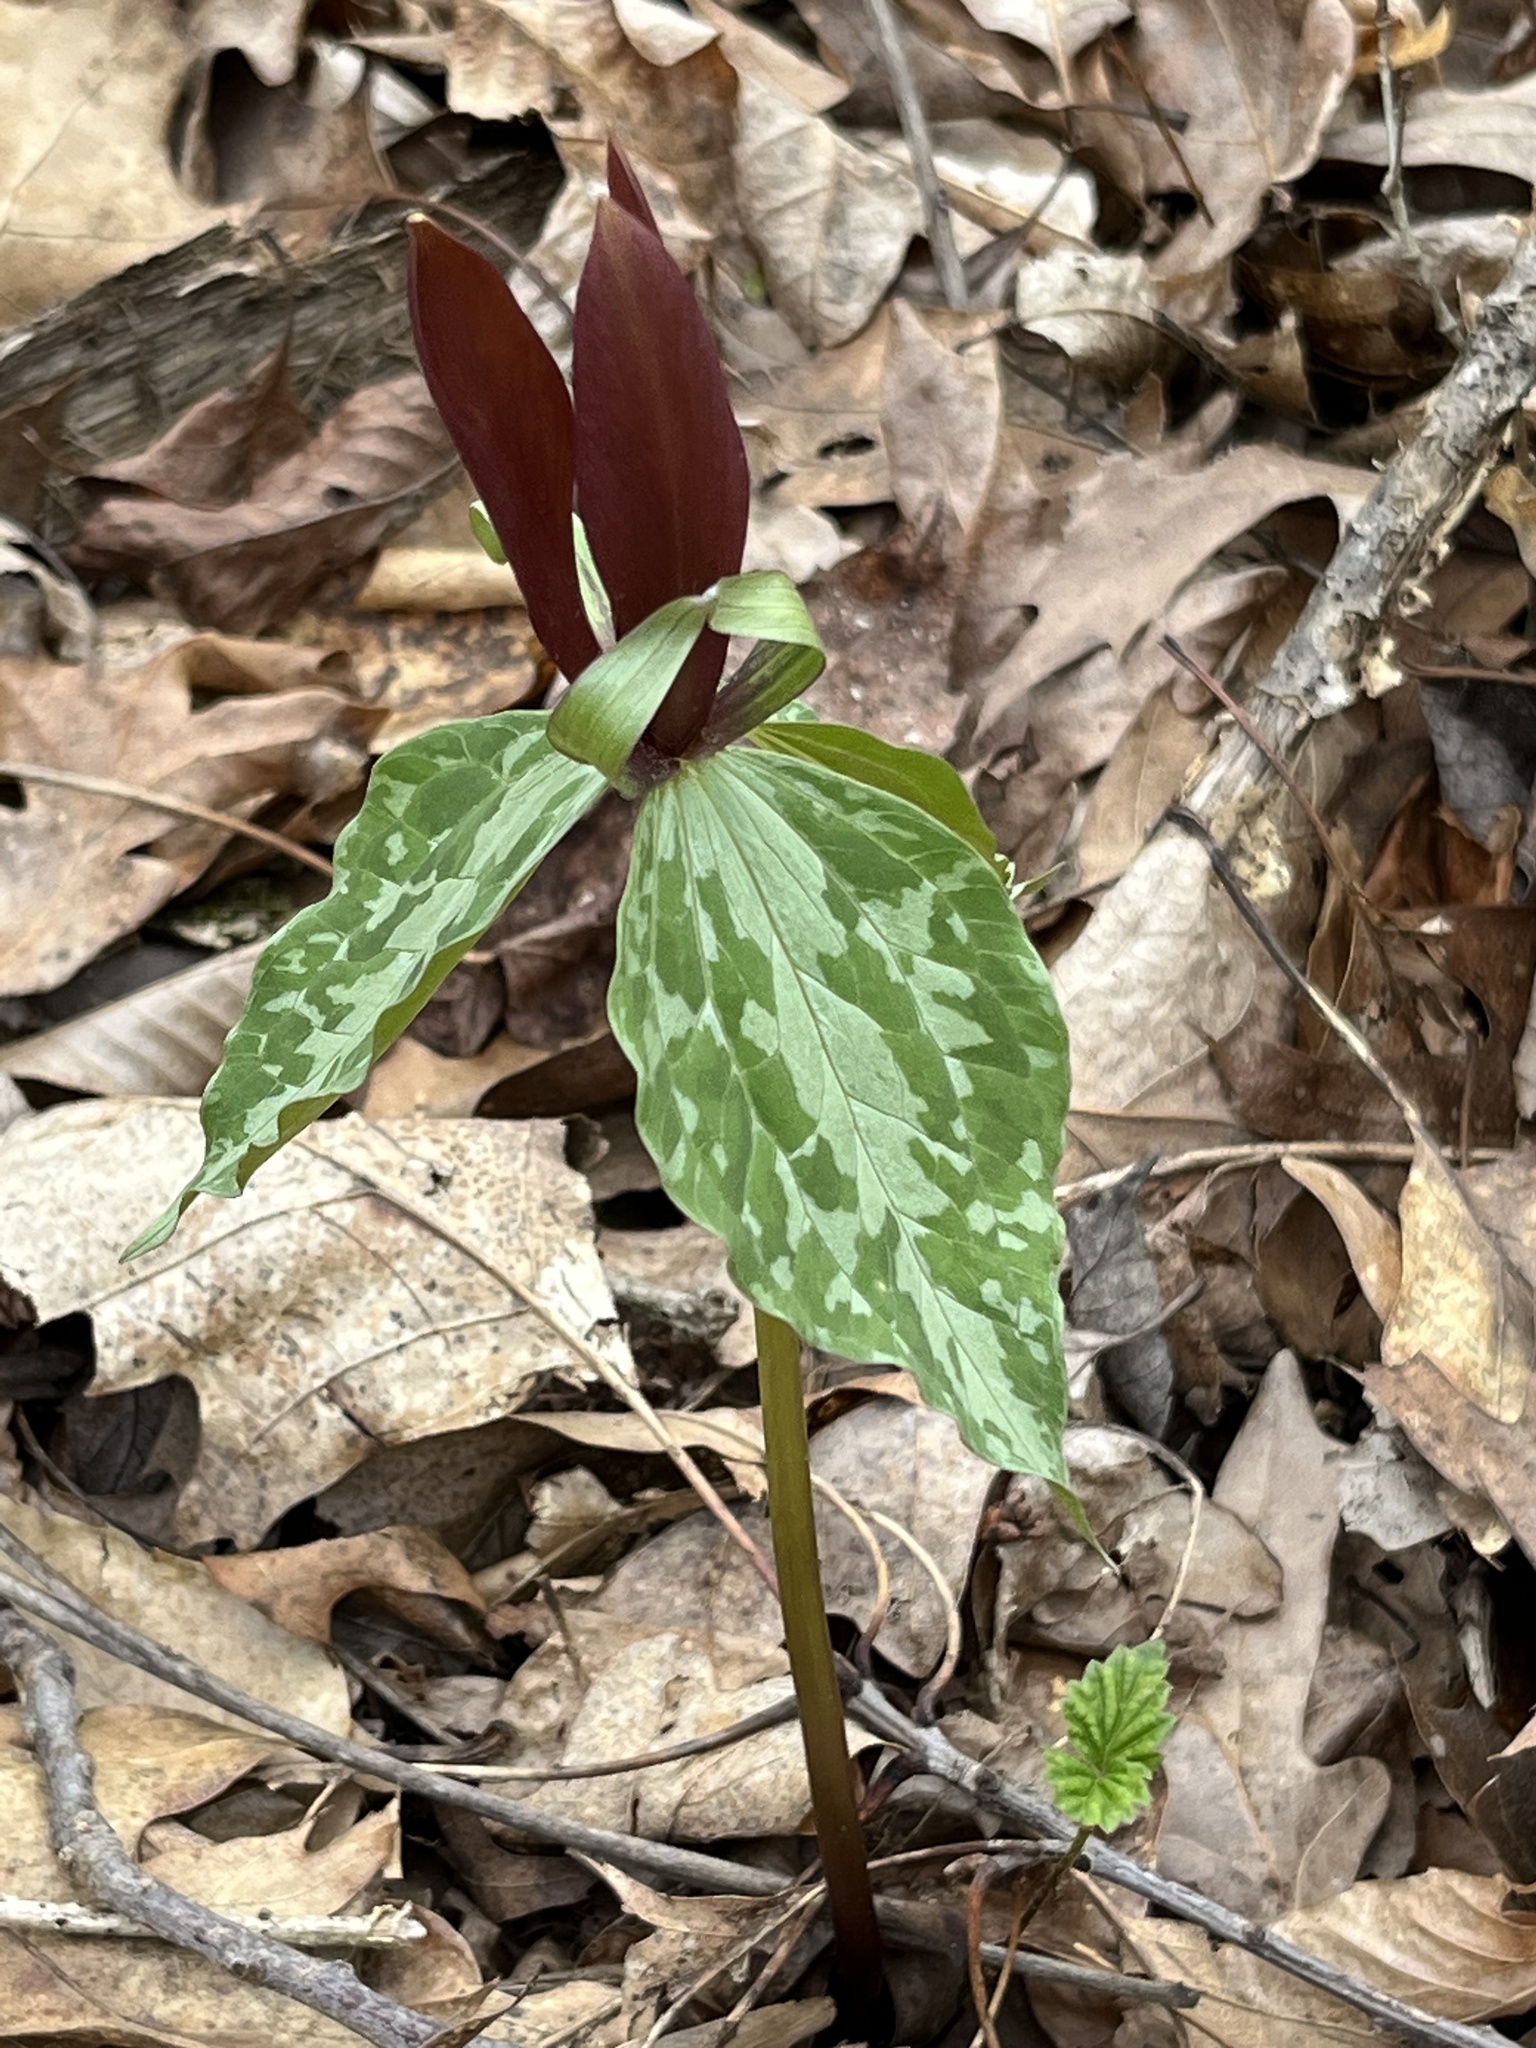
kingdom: Plantae
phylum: Tracheophyta
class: Liliopsida
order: Liliales
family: Melanthiaceae
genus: Trillium
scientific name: Trillium cuneatum
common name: Cuneate trillium
